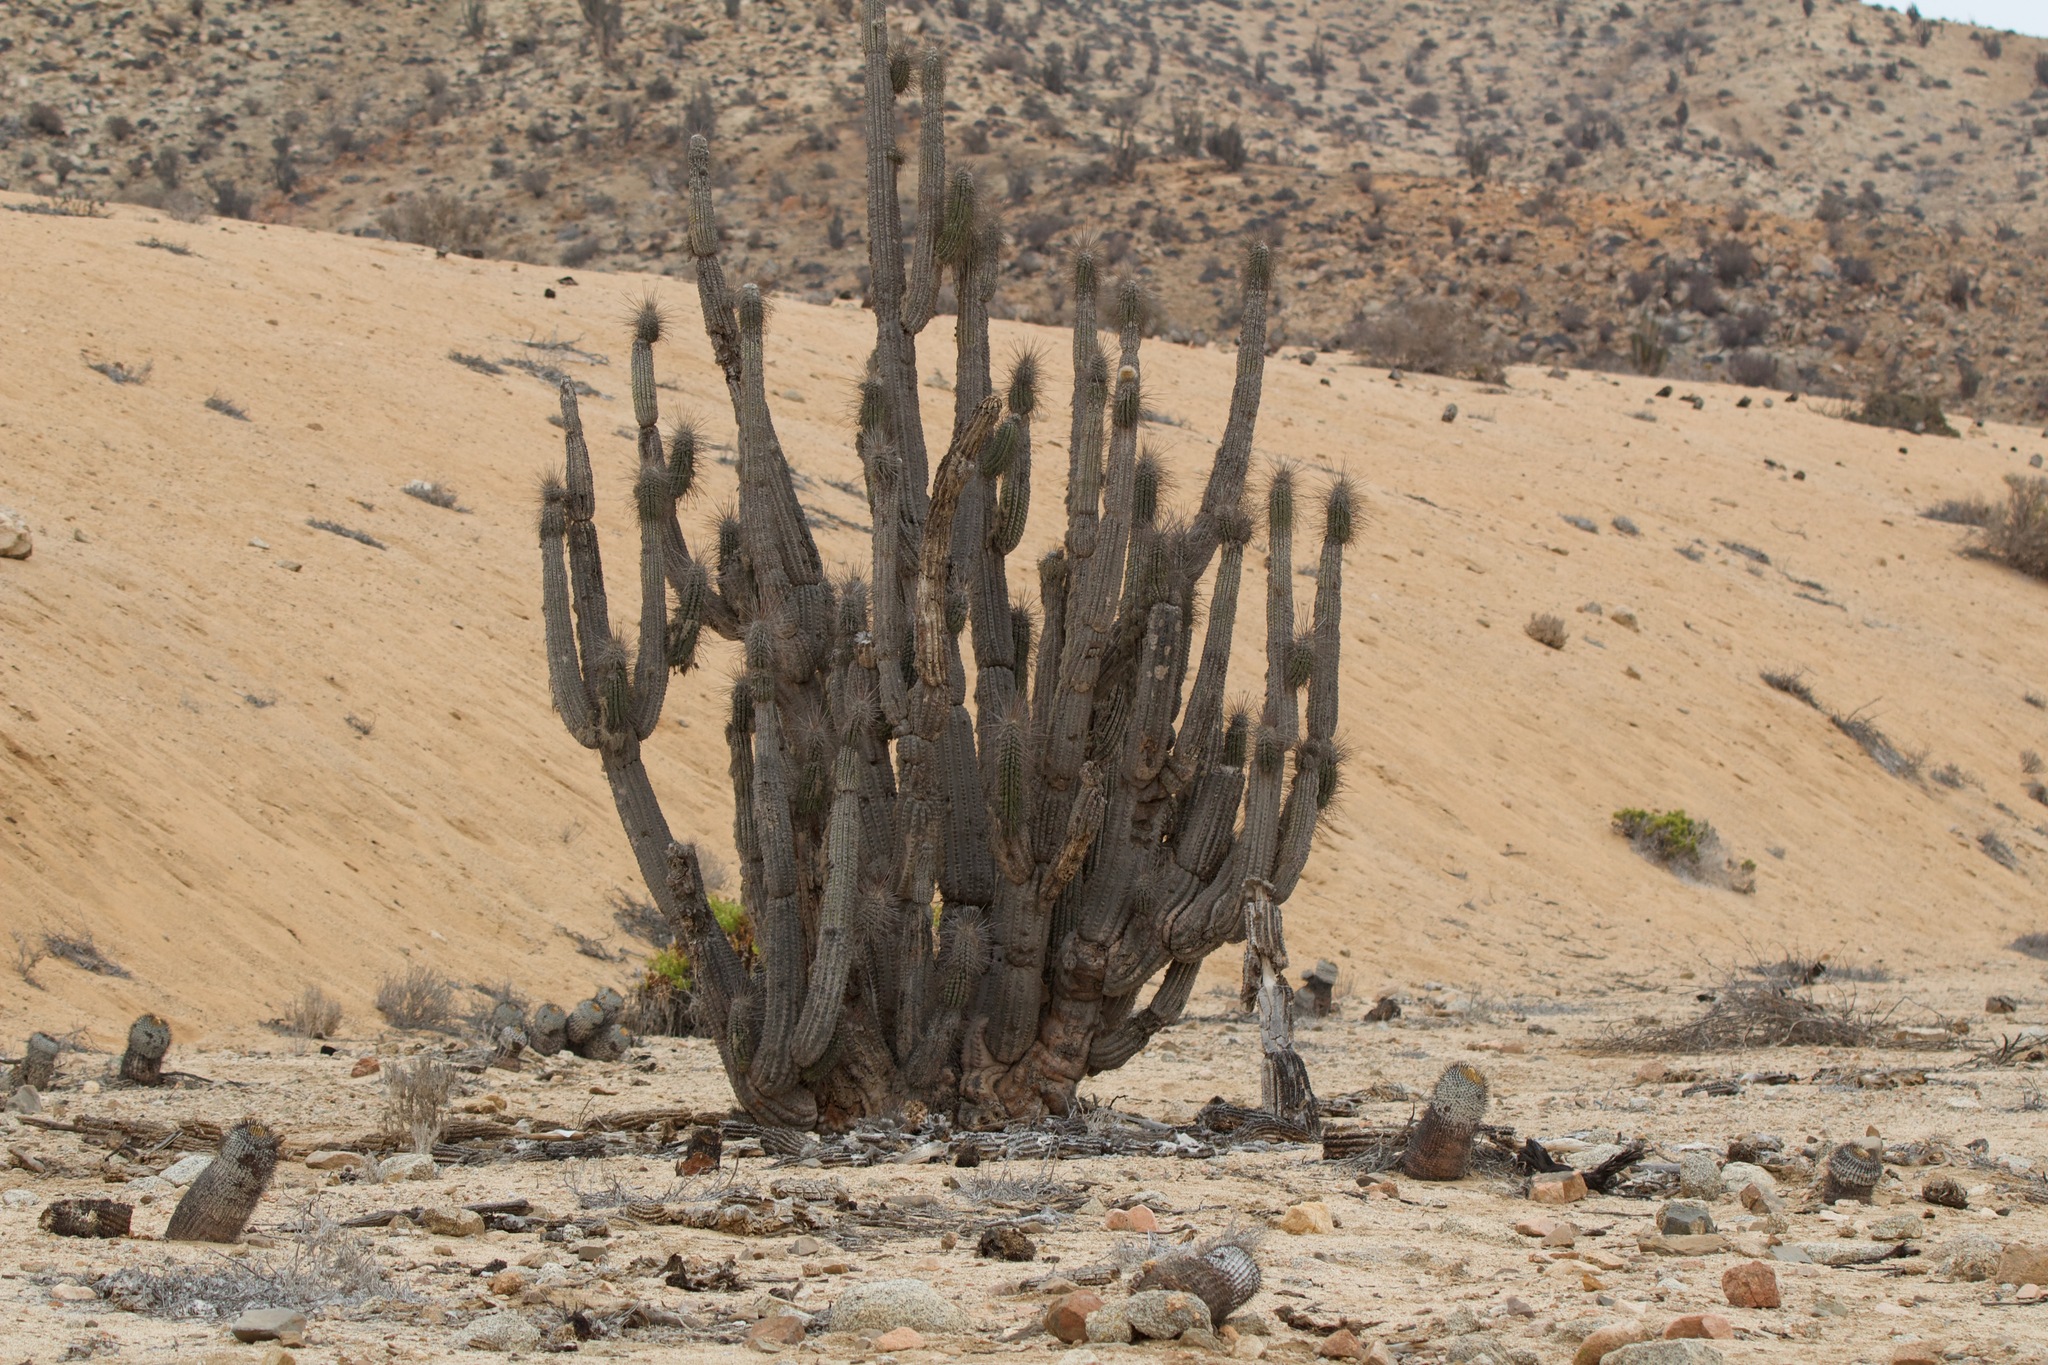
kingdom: Plantae
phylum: Tracheophyta
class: Magnoliopsida
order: Caryophyllales
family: Cactaceae
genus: Eulychnia
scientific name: Eulychnia iquiquensis
